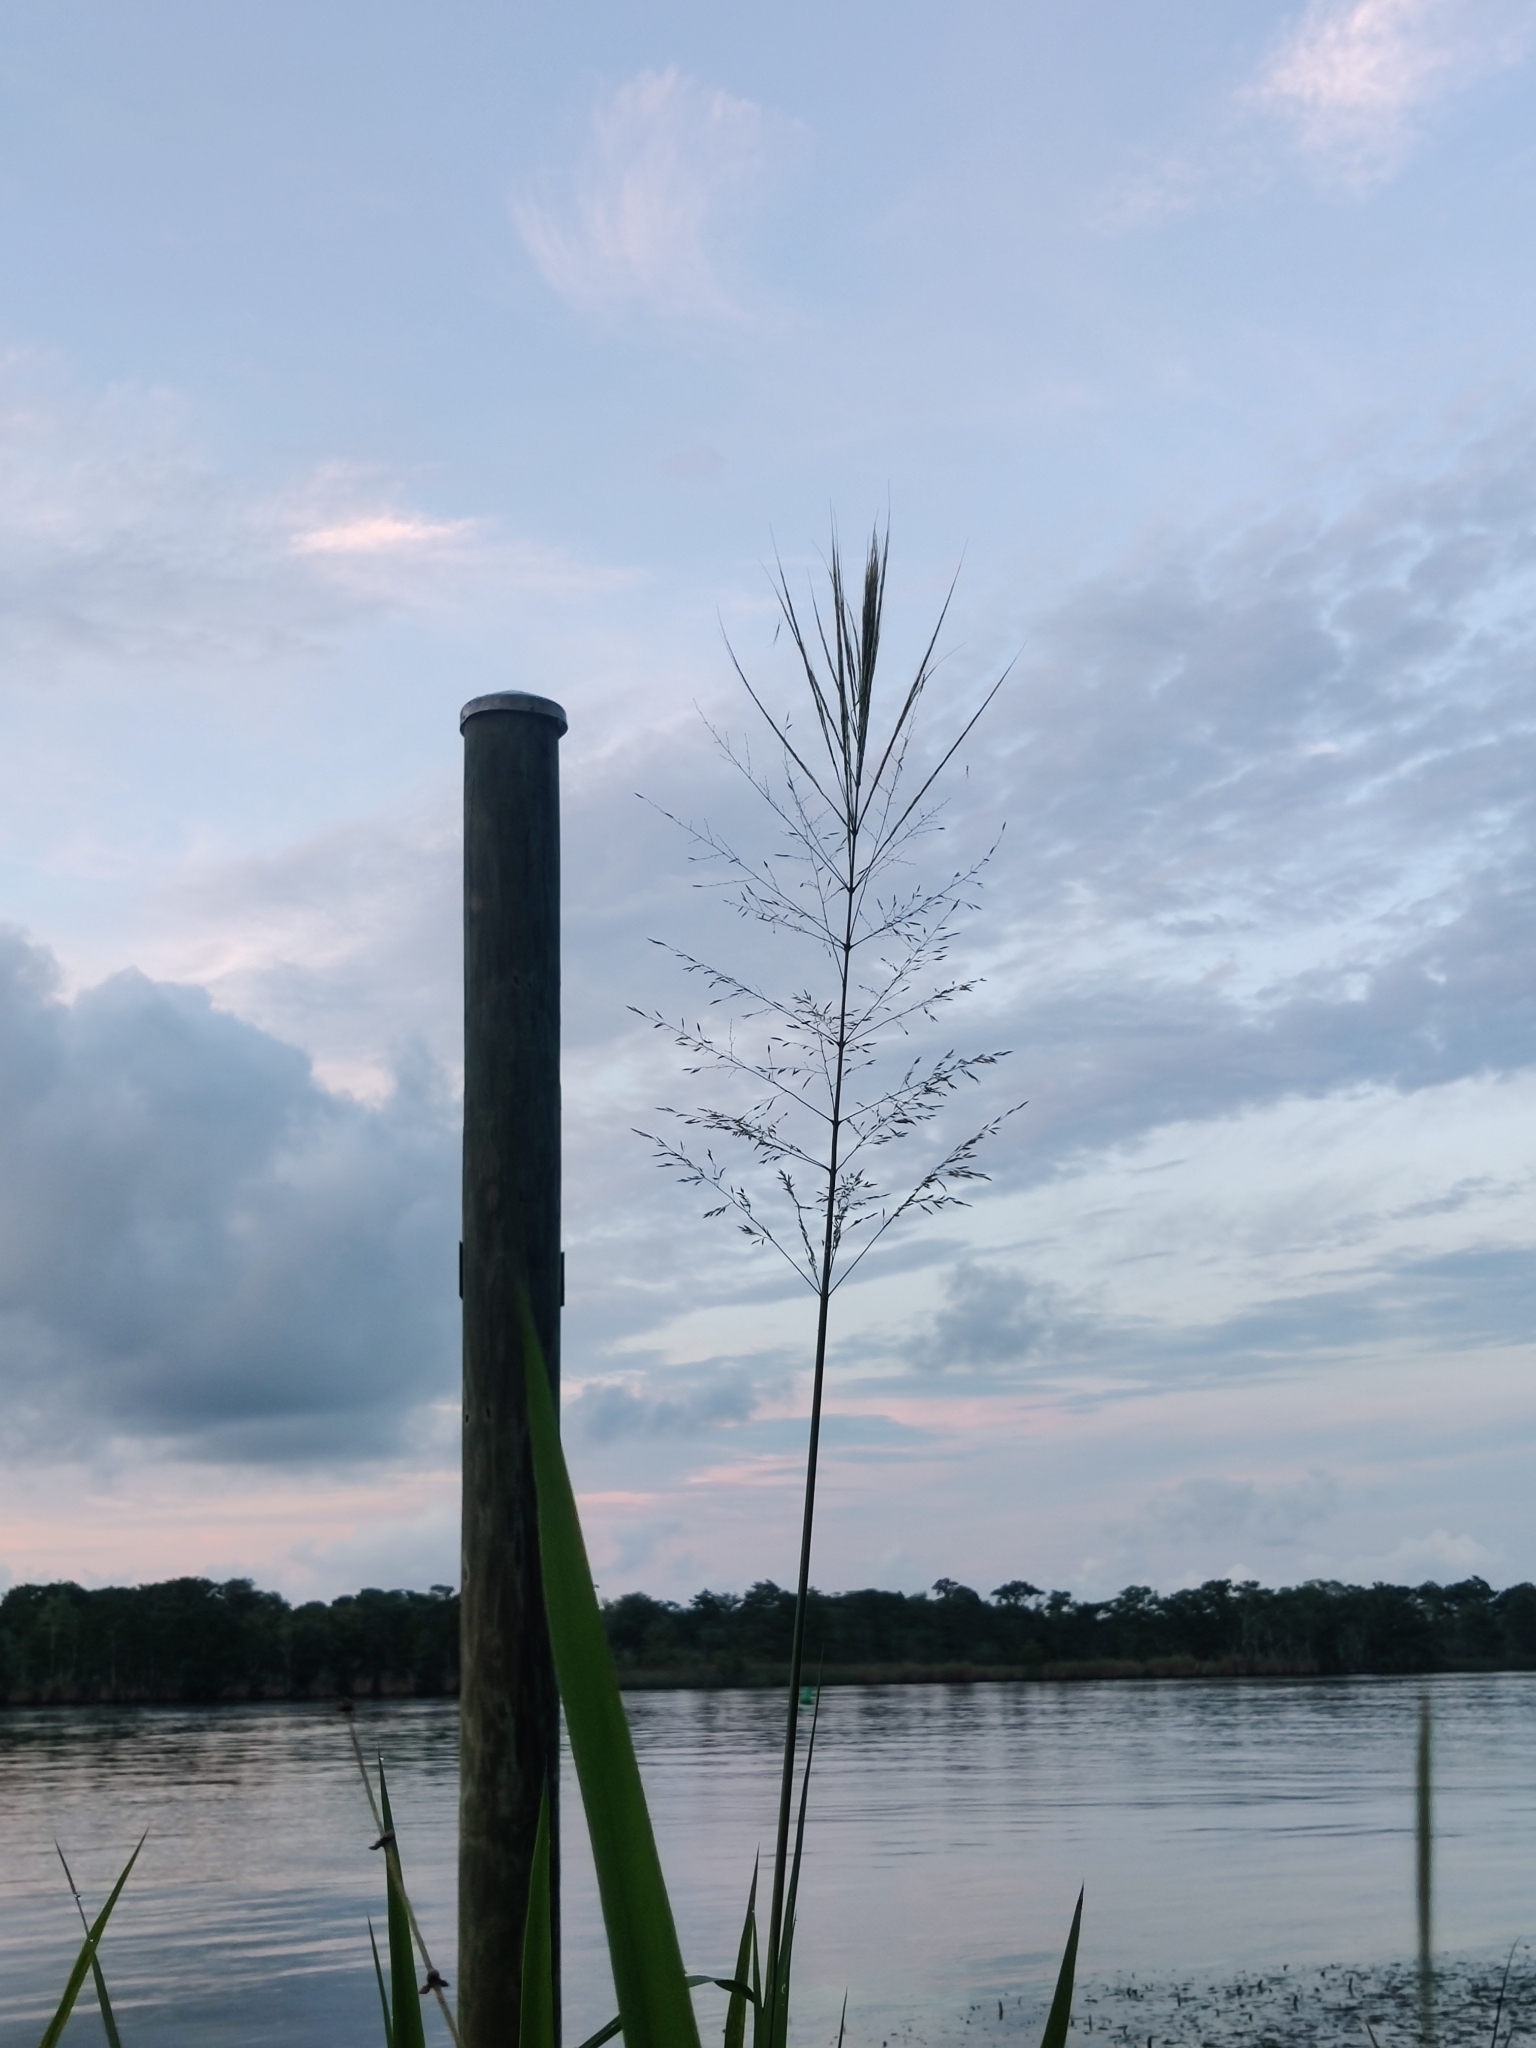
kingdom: Plantae
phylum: Tracheophyta
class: Liliopsida
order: Poales
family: Poaceae
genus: Zizania
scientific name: Zizania aquatica
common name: Annual wildrice
